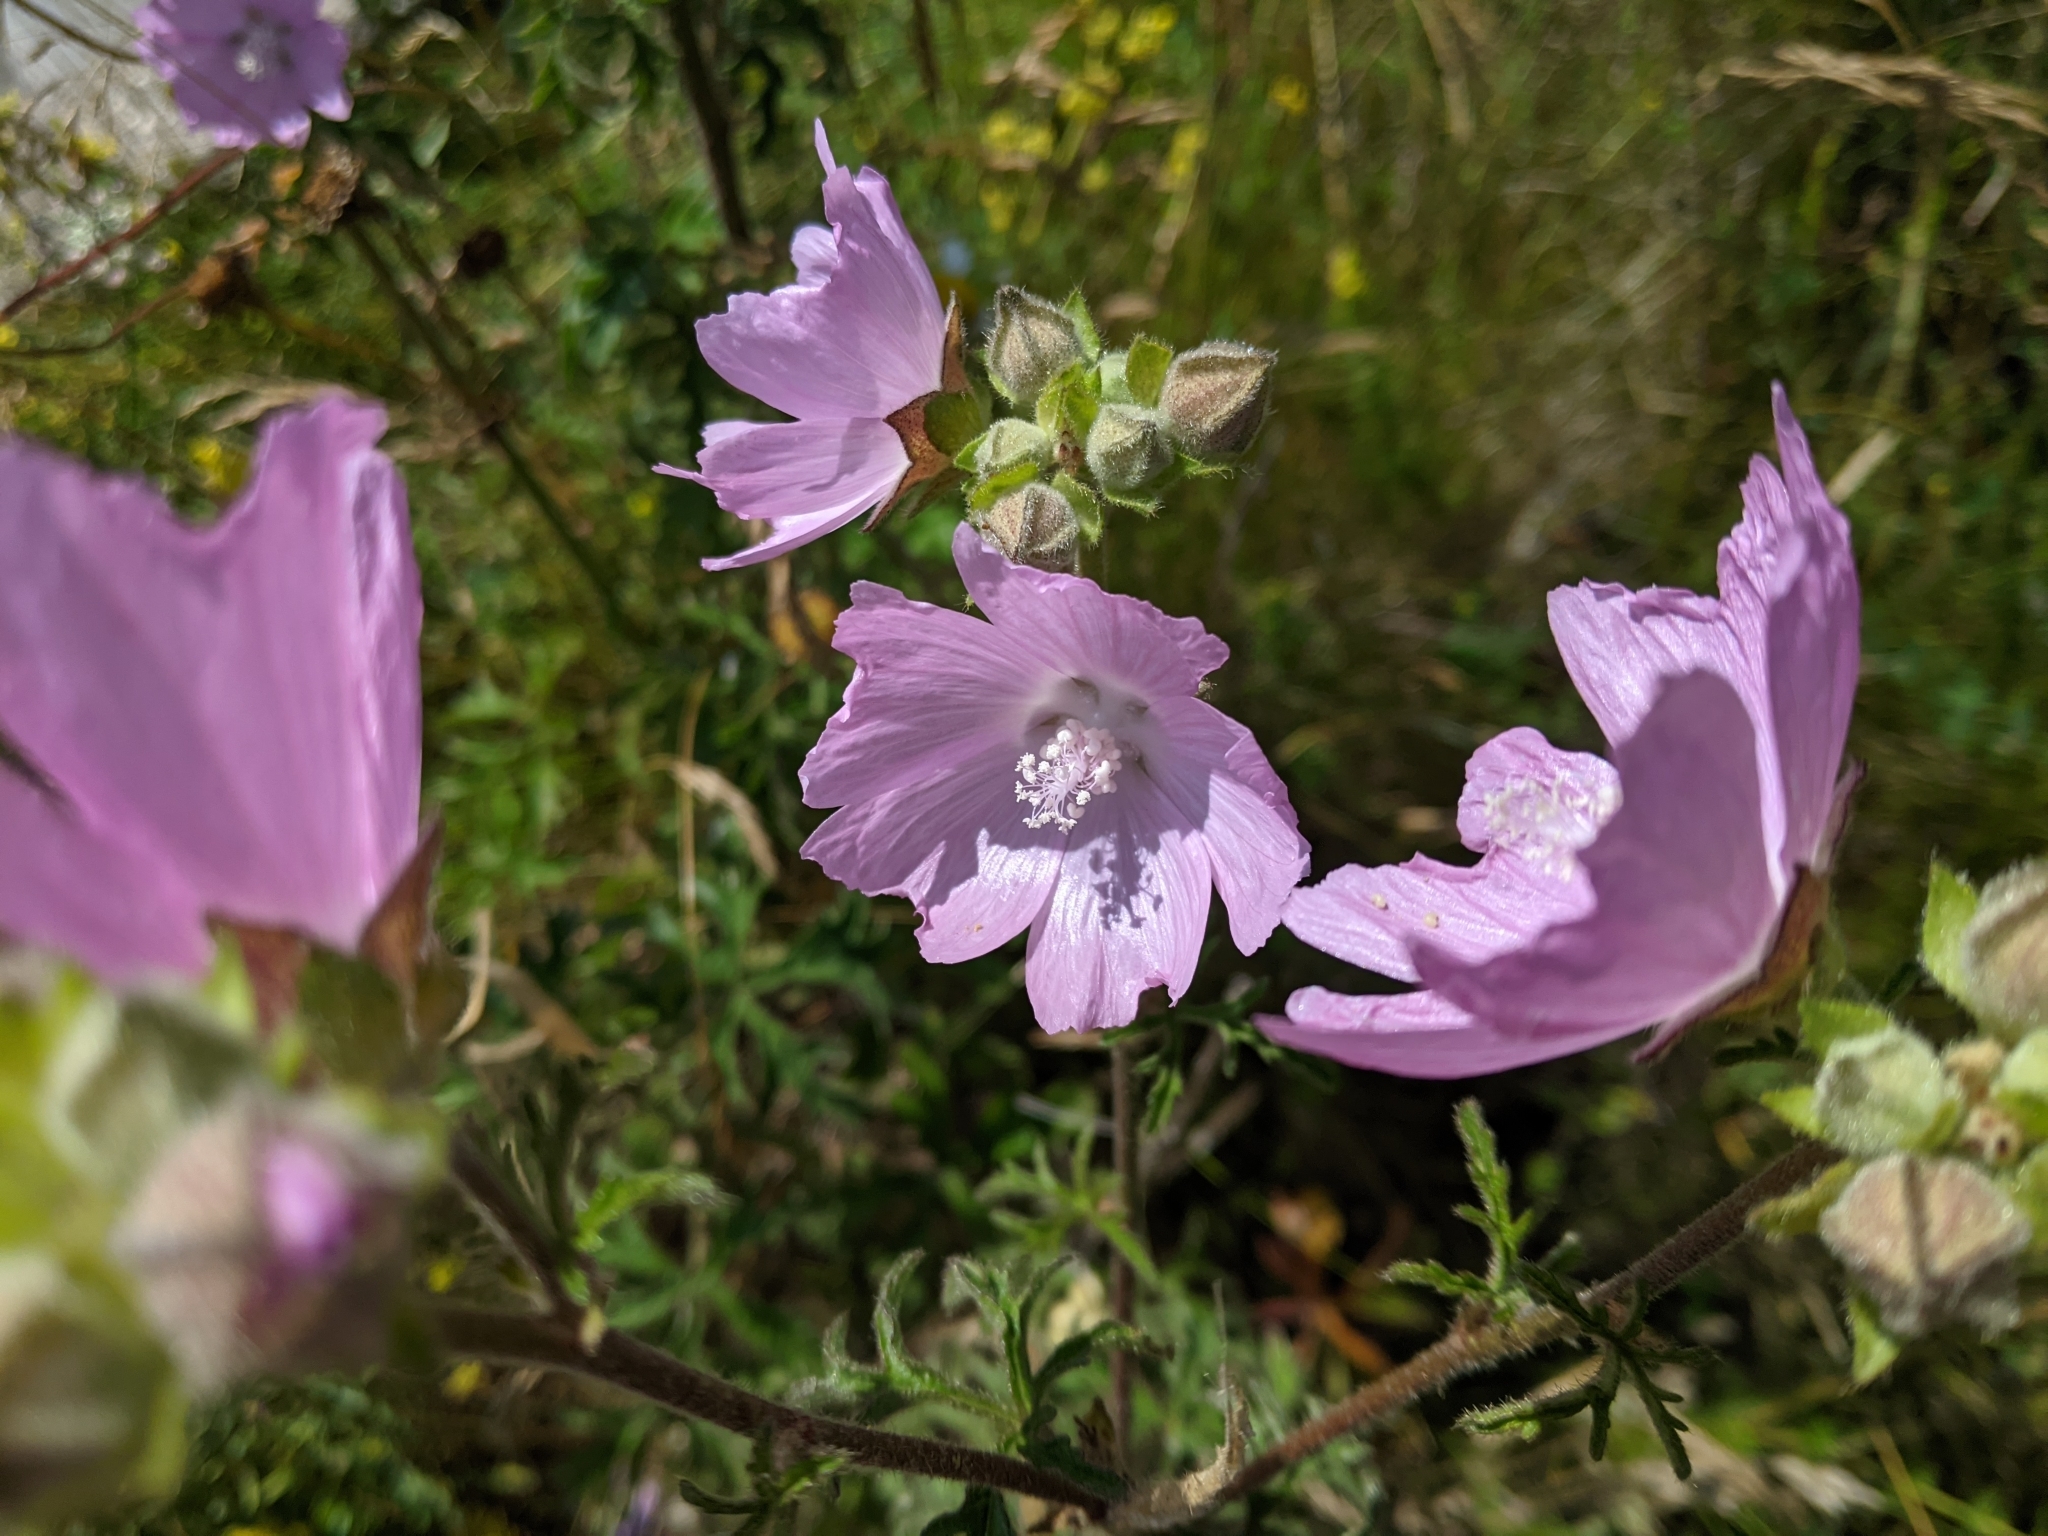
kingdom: Plantae
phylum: Tracheophyta
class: Magnoliopsida
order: Malvales
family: Malvaceae
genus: Malva
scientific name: Malva alcea
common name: Greater musk-mallow
